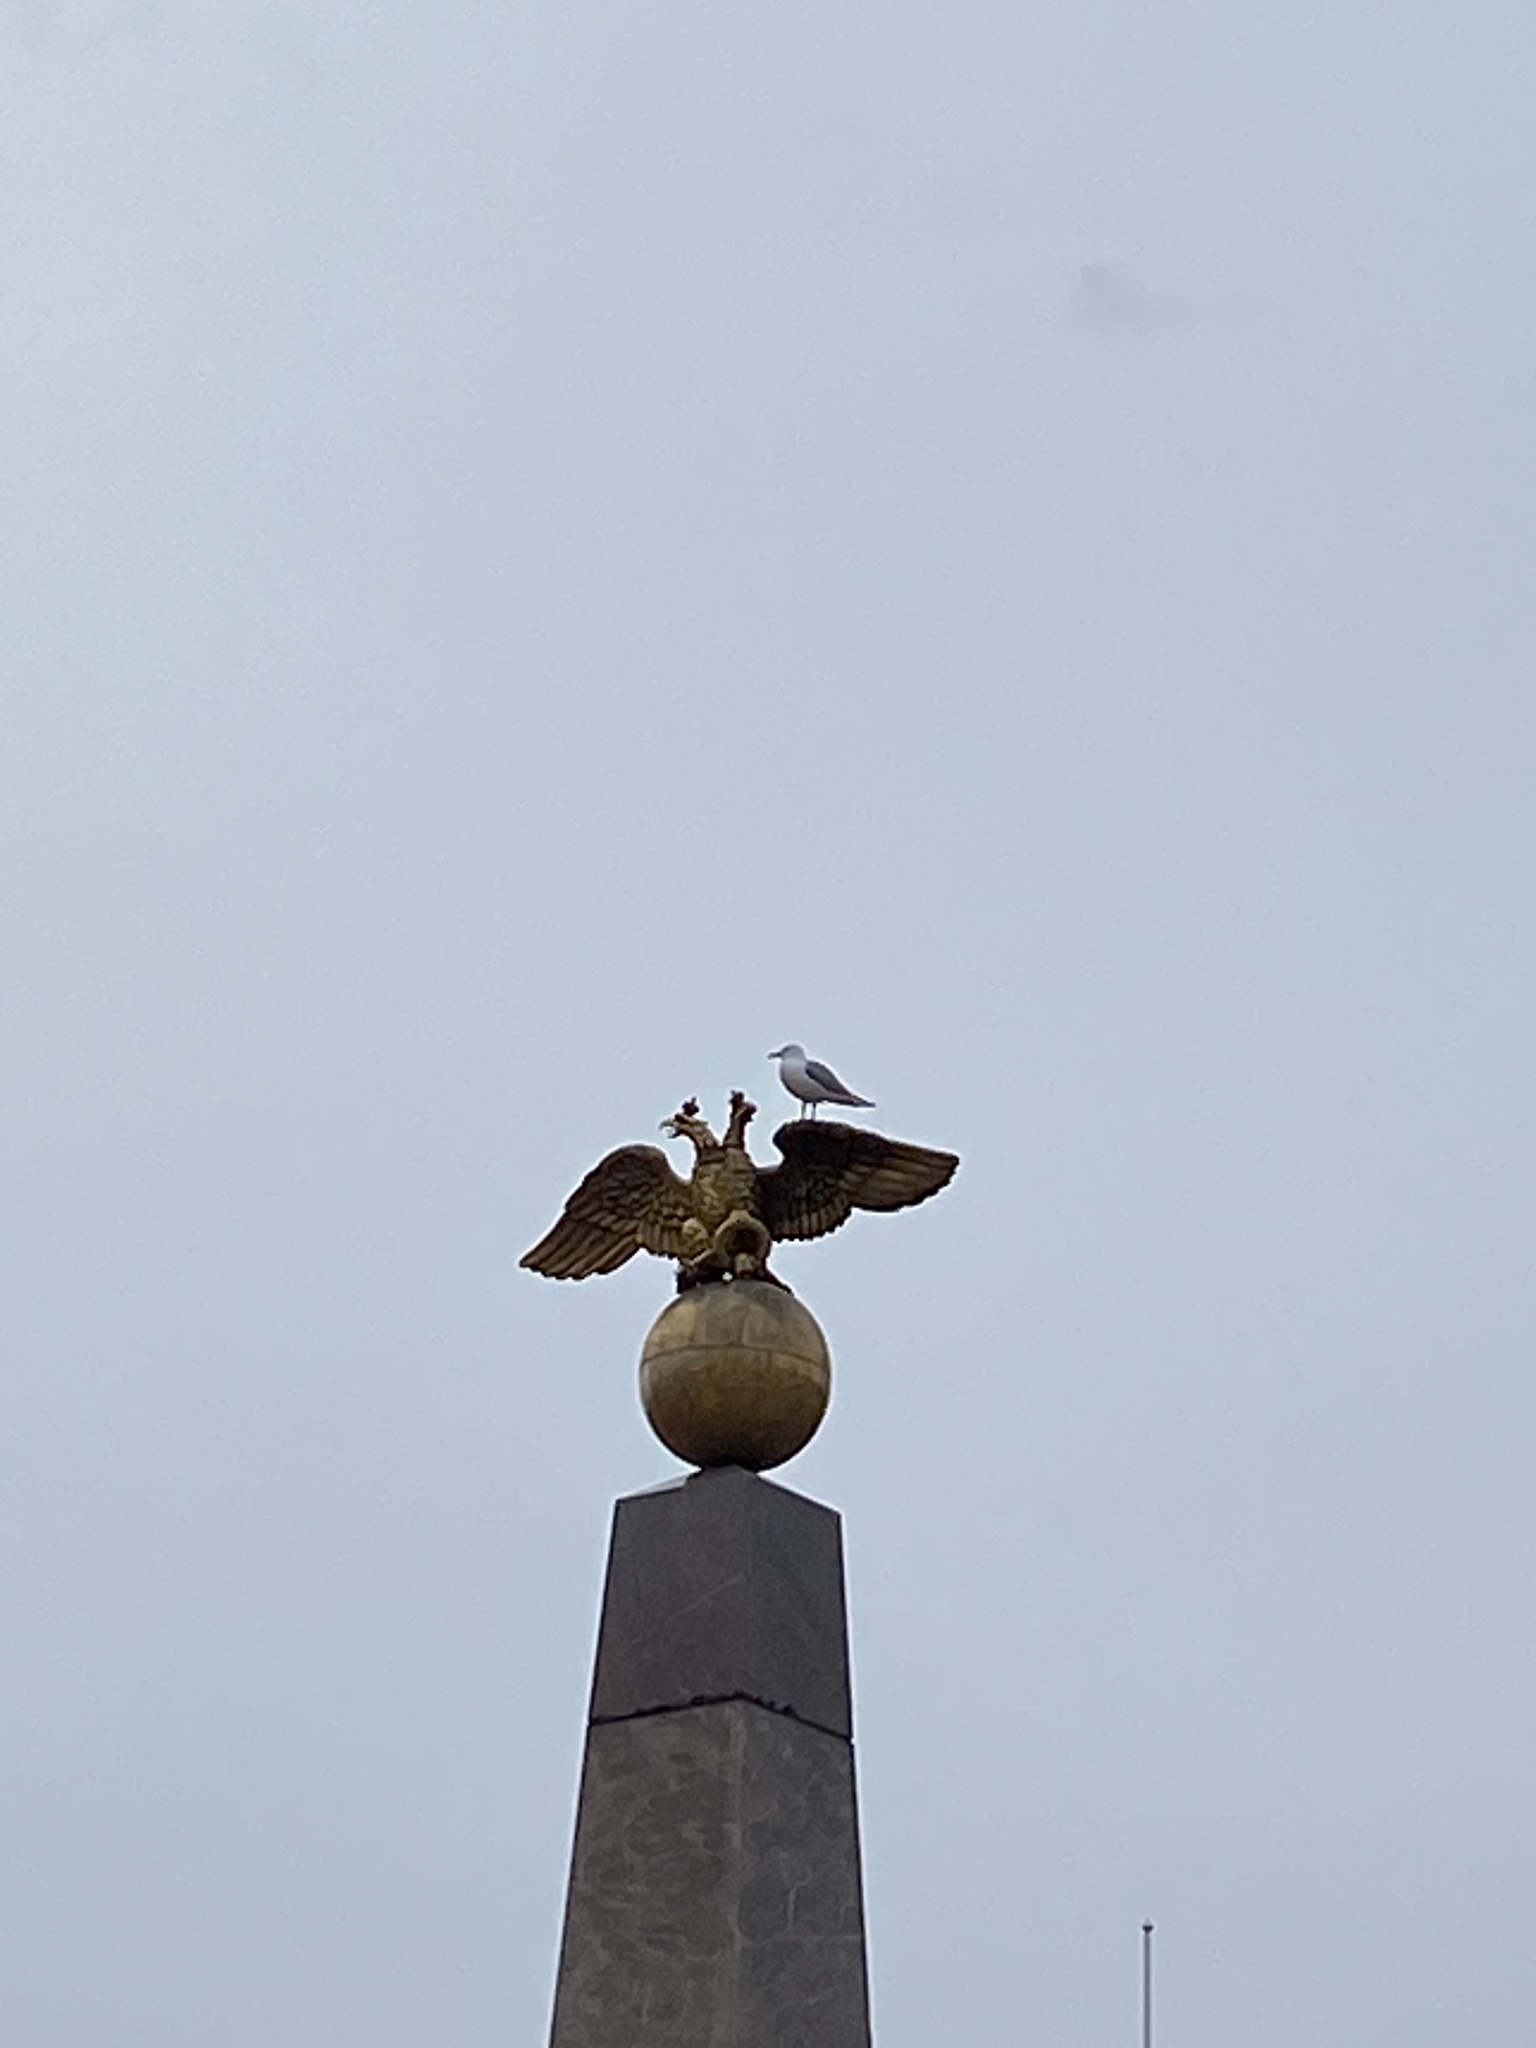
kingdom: Animalia
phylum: Chordata
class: Aves
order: Charadriiformes
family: Laridae
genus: Larus
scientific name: Larus canus
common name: Mew gull
